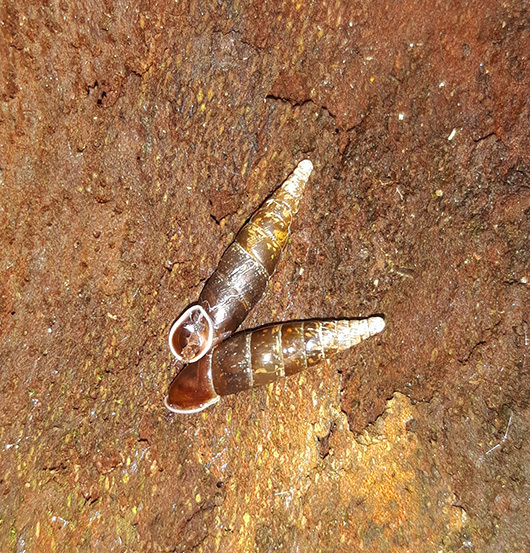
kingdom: Animalia
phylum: Mollusca
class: Gastropoda
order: Stylommatophora
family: Clausiliidae
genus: Cochlodina
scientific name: Cochlodina laminata
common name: Plaited door snail
